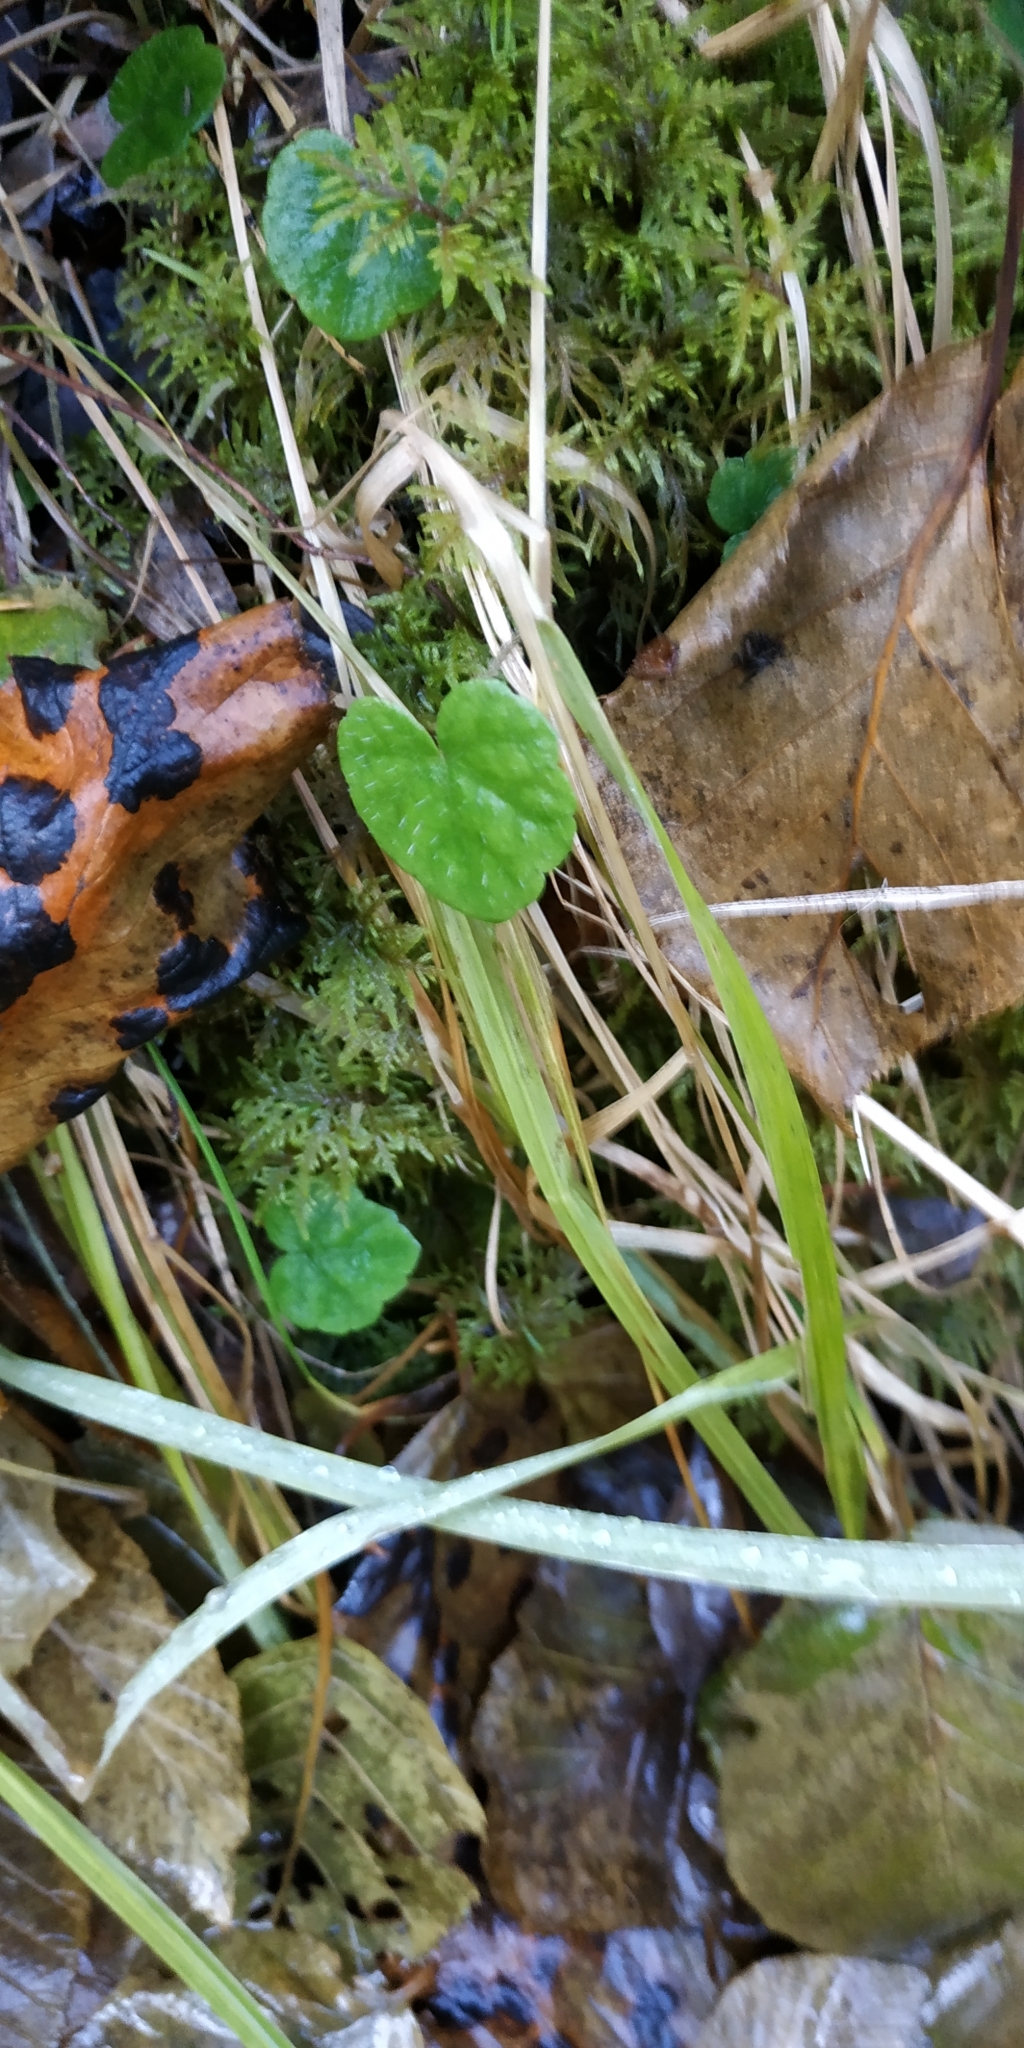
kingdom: Plantae
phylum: Tracheophyta
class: Magnoliopsida
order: Saxifragales
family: Saxifragaceae
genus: Mitella
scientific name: Mitella nuda
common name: Bare-stemmed bishop's-cap
